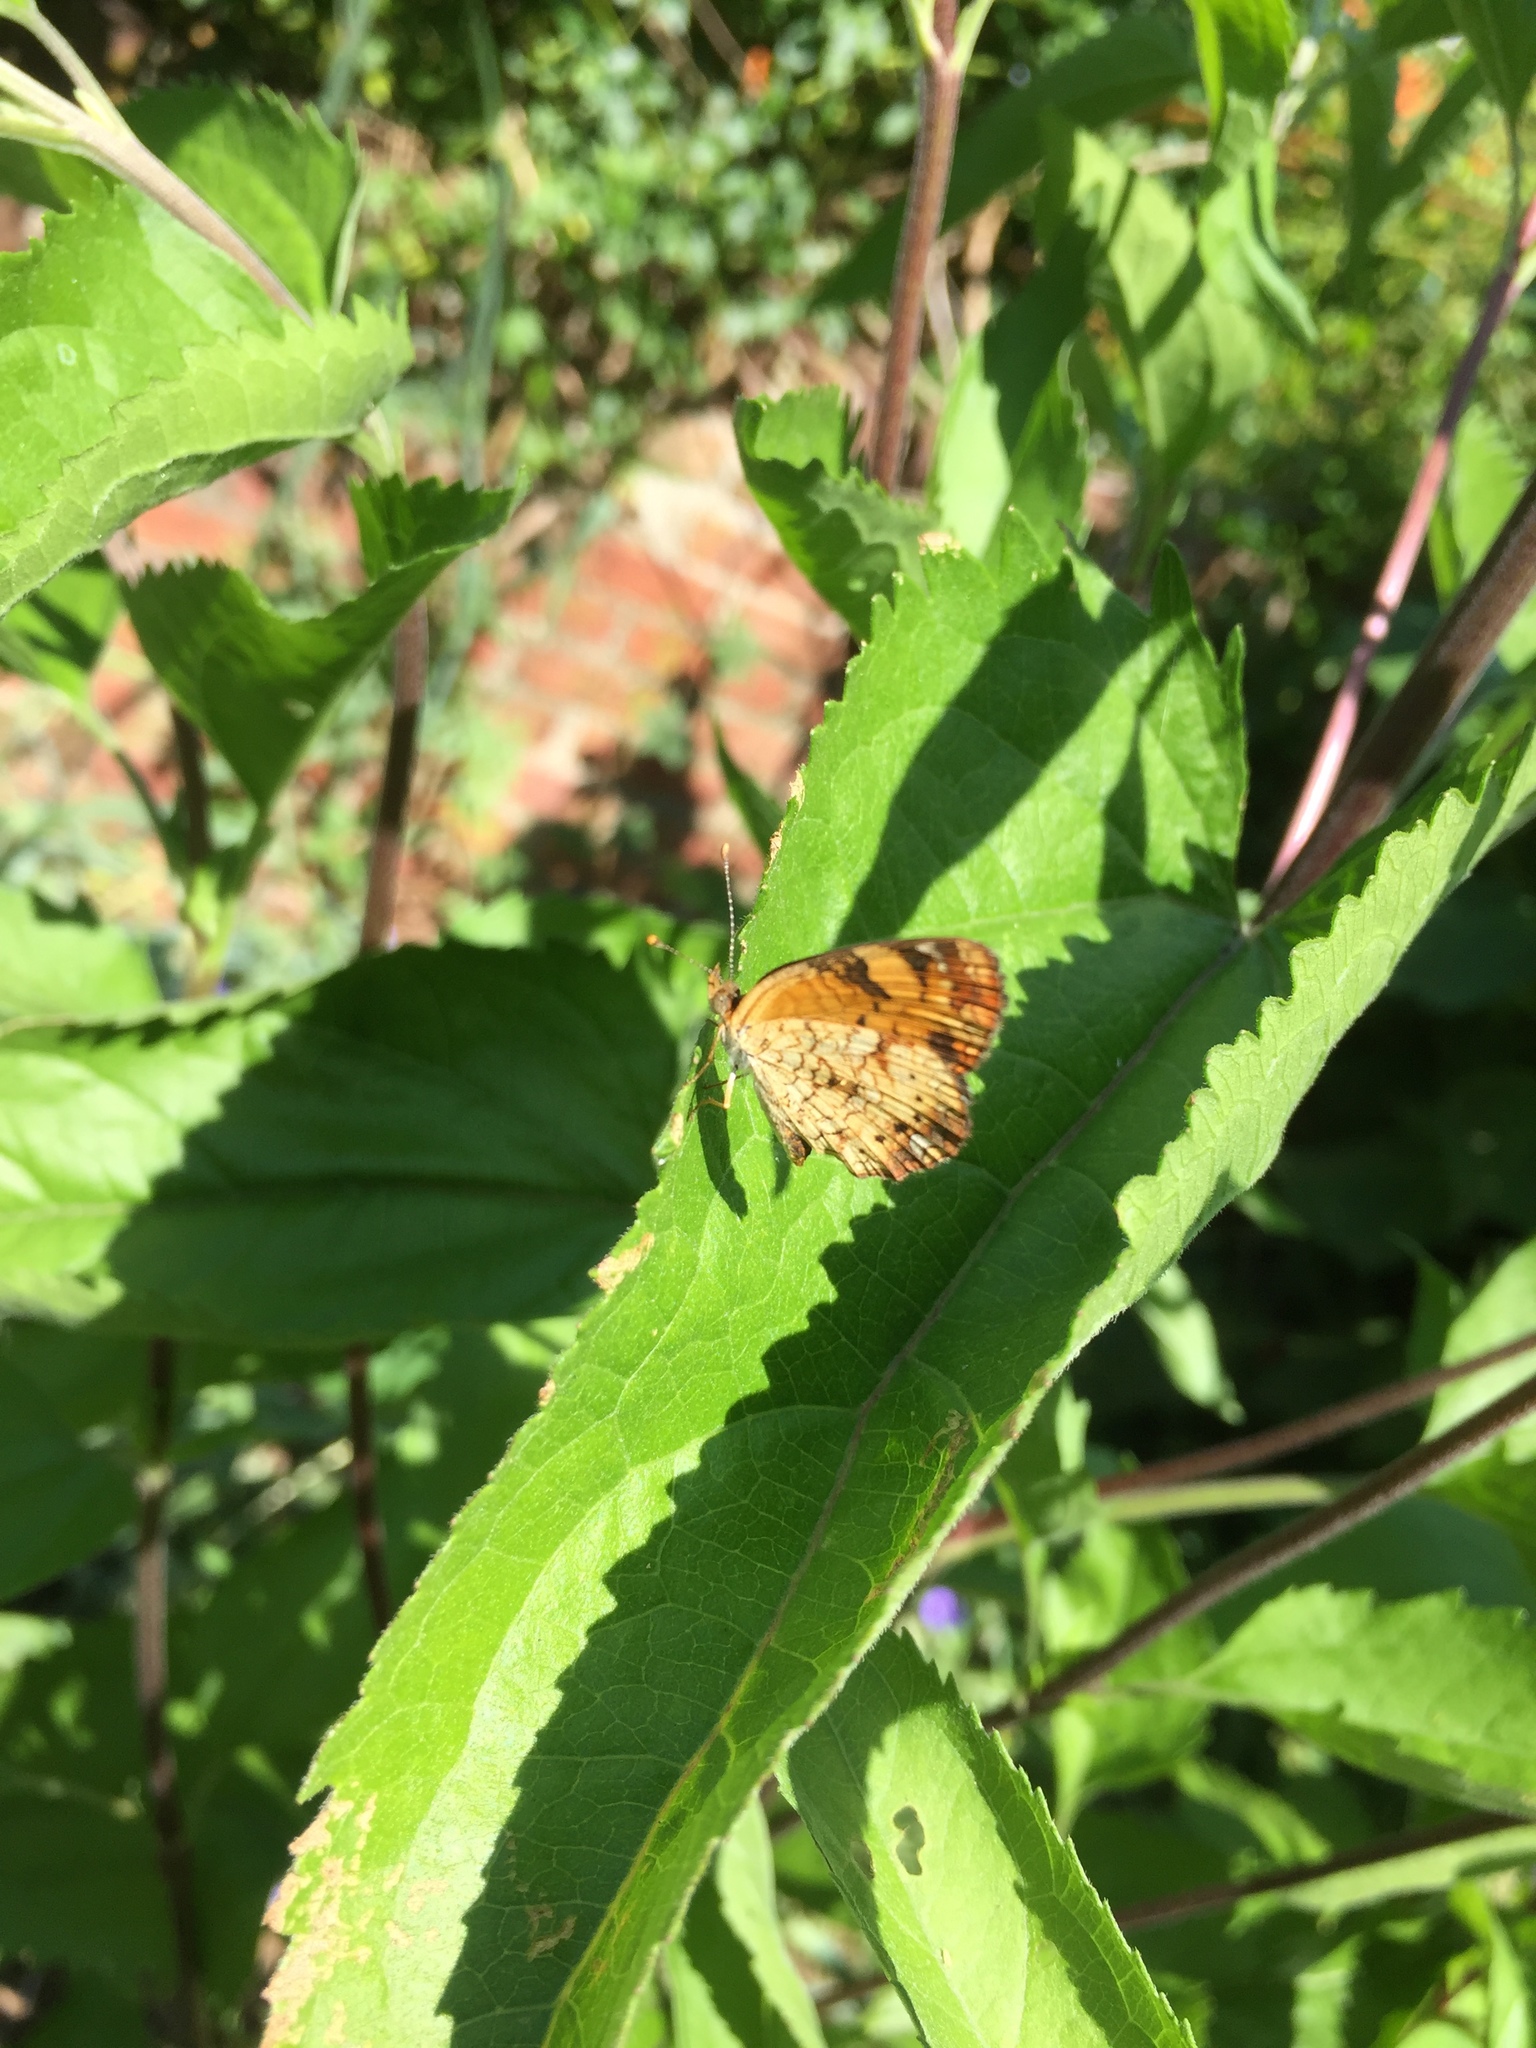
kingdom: Animalia
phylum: Arthropoda
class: Insecta
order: Lepidoptera
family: Nymphalidae
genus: Phyciodes
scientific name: Phyciodes tharos
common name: Pearl crescent
